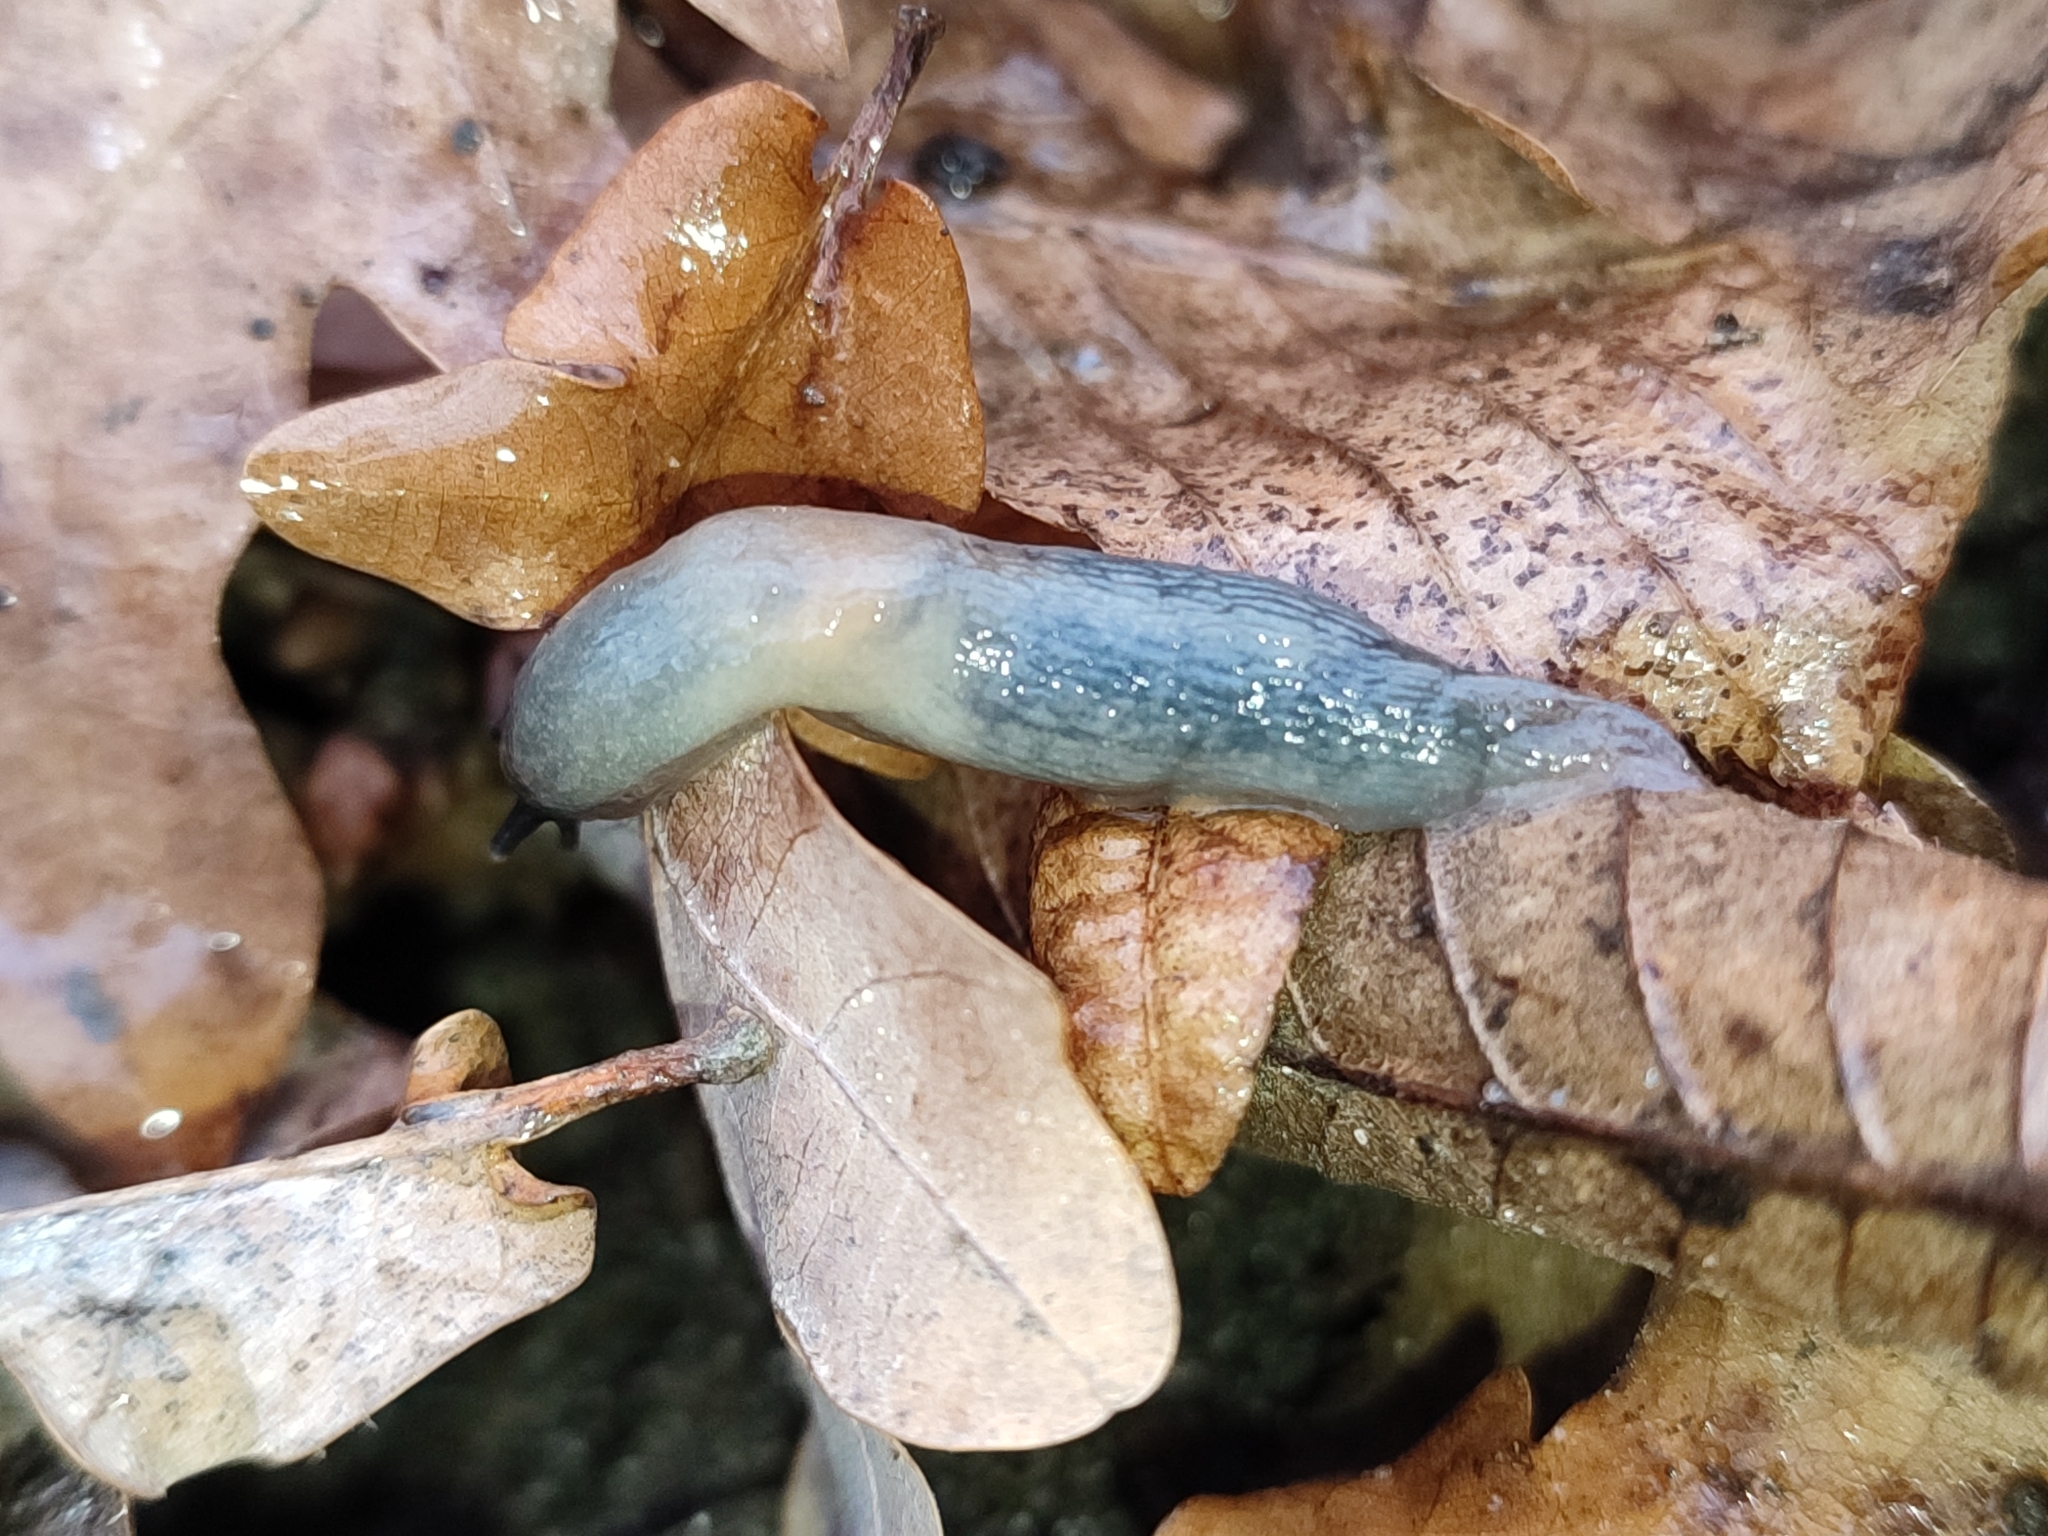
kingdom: Animalia
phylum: Mollusca
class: Gastropoda
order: Stylommatophora
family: Agriolimacidae
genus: Krynickillus
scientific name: Krynickillus melanocephalus
